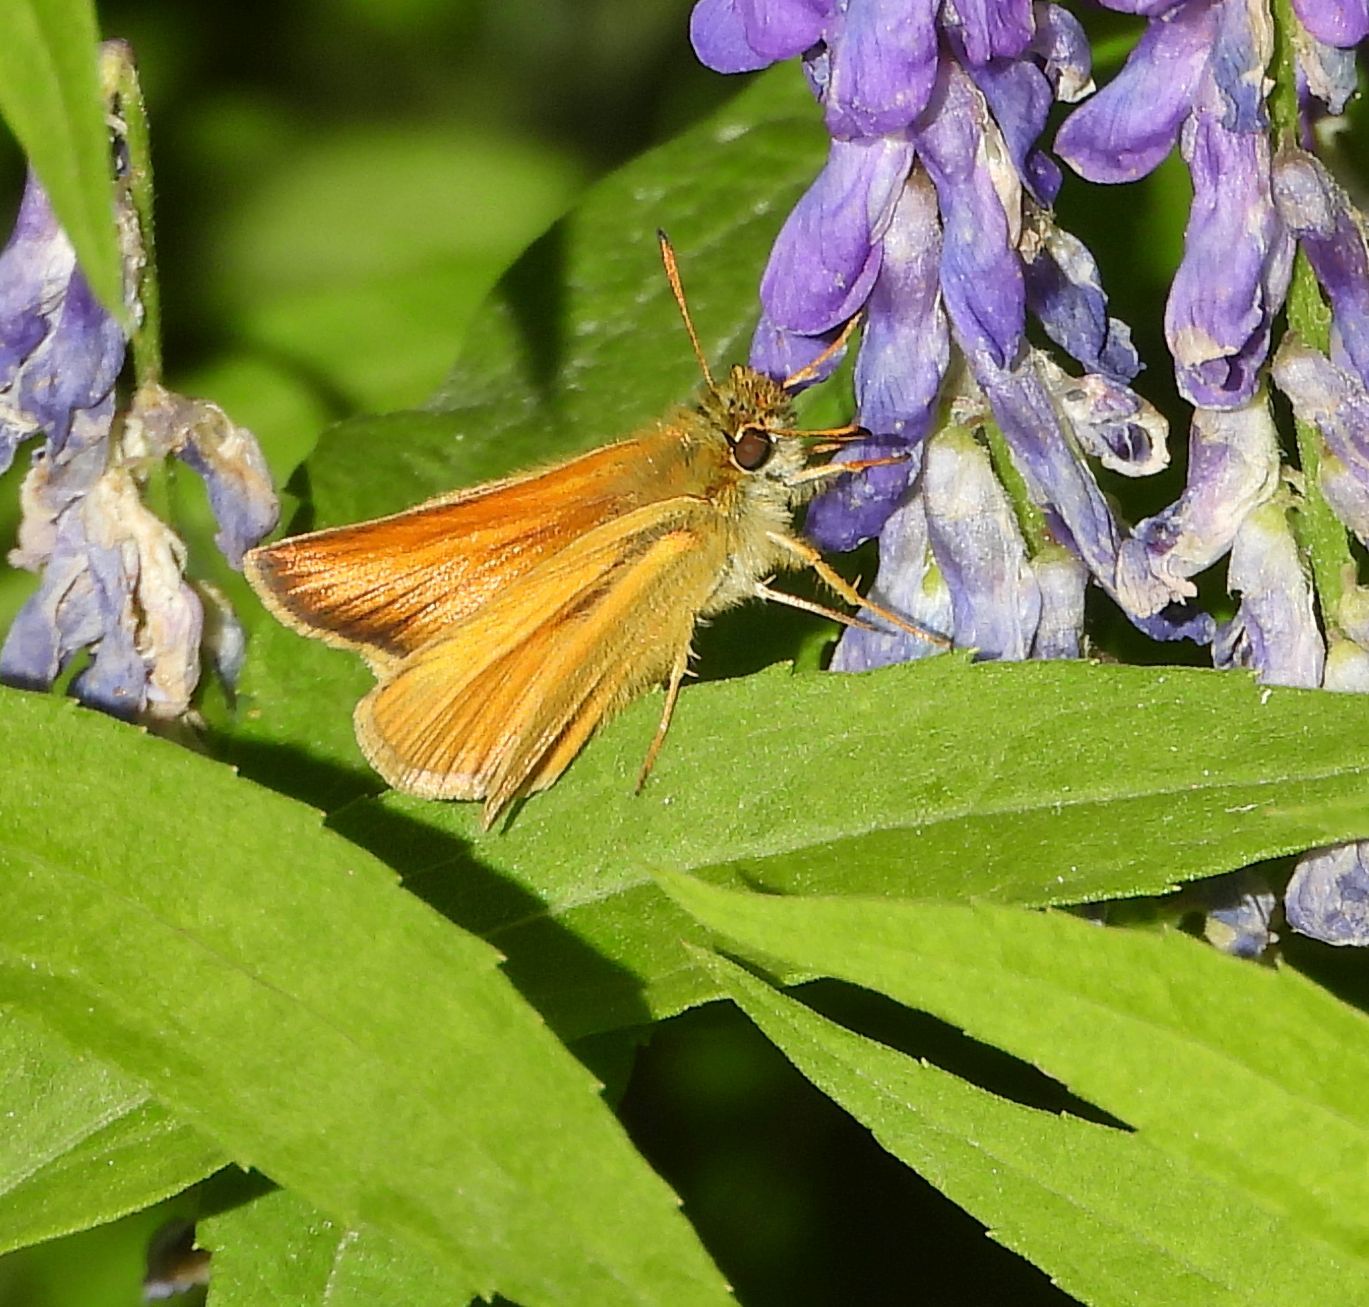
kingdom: Animalia
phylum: Arthropoda
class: Insecta
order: Lepidoptera
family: Hesperiidae
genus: Thymelicus
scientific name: Thymelicus lineola
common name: Essex skipper
